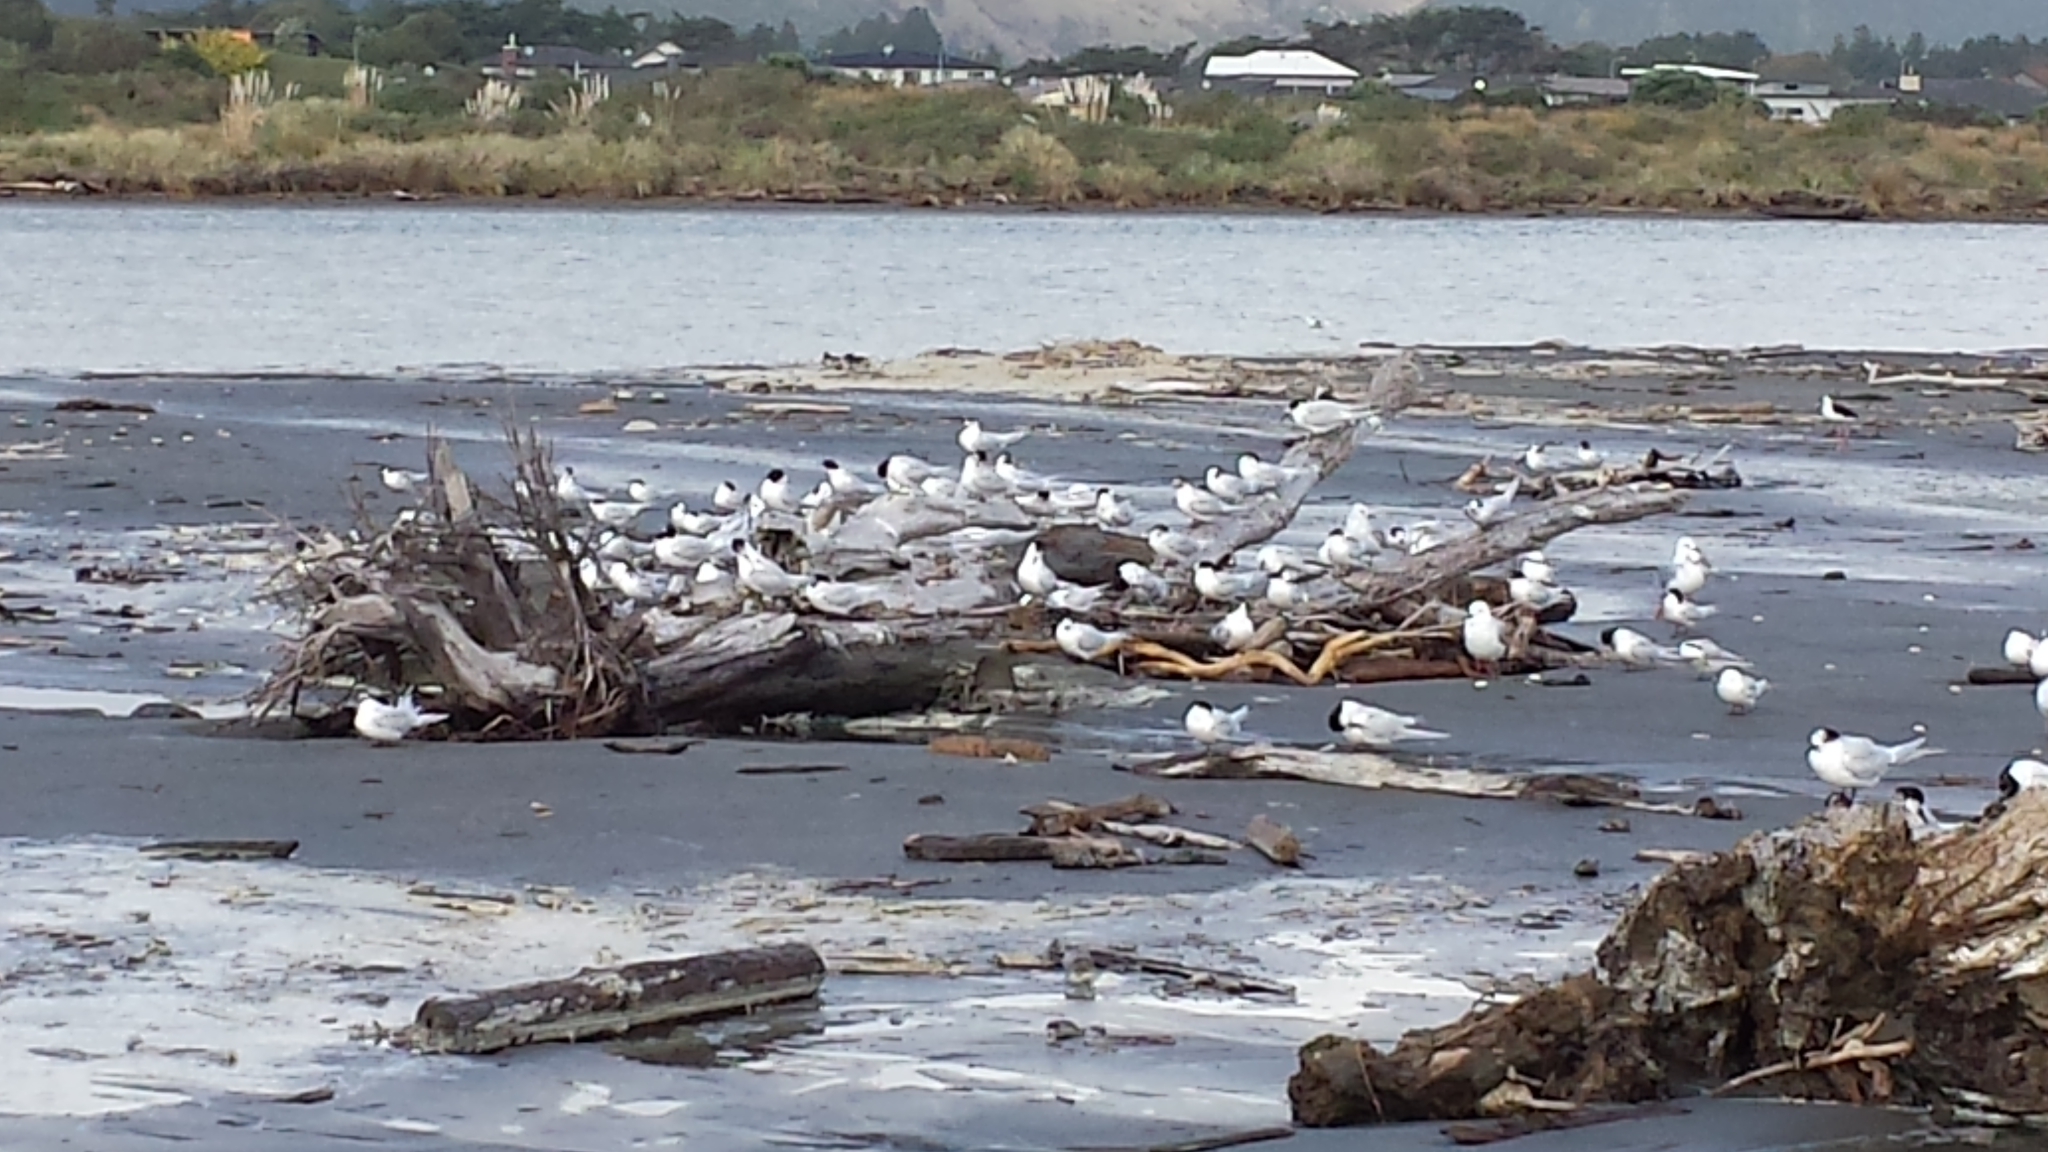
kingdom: Animalia
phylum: Chordata
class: Aves
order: Charadriiformes
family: Laridae
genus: Sterna
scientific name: Sterna striata
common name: White-fronted tern
